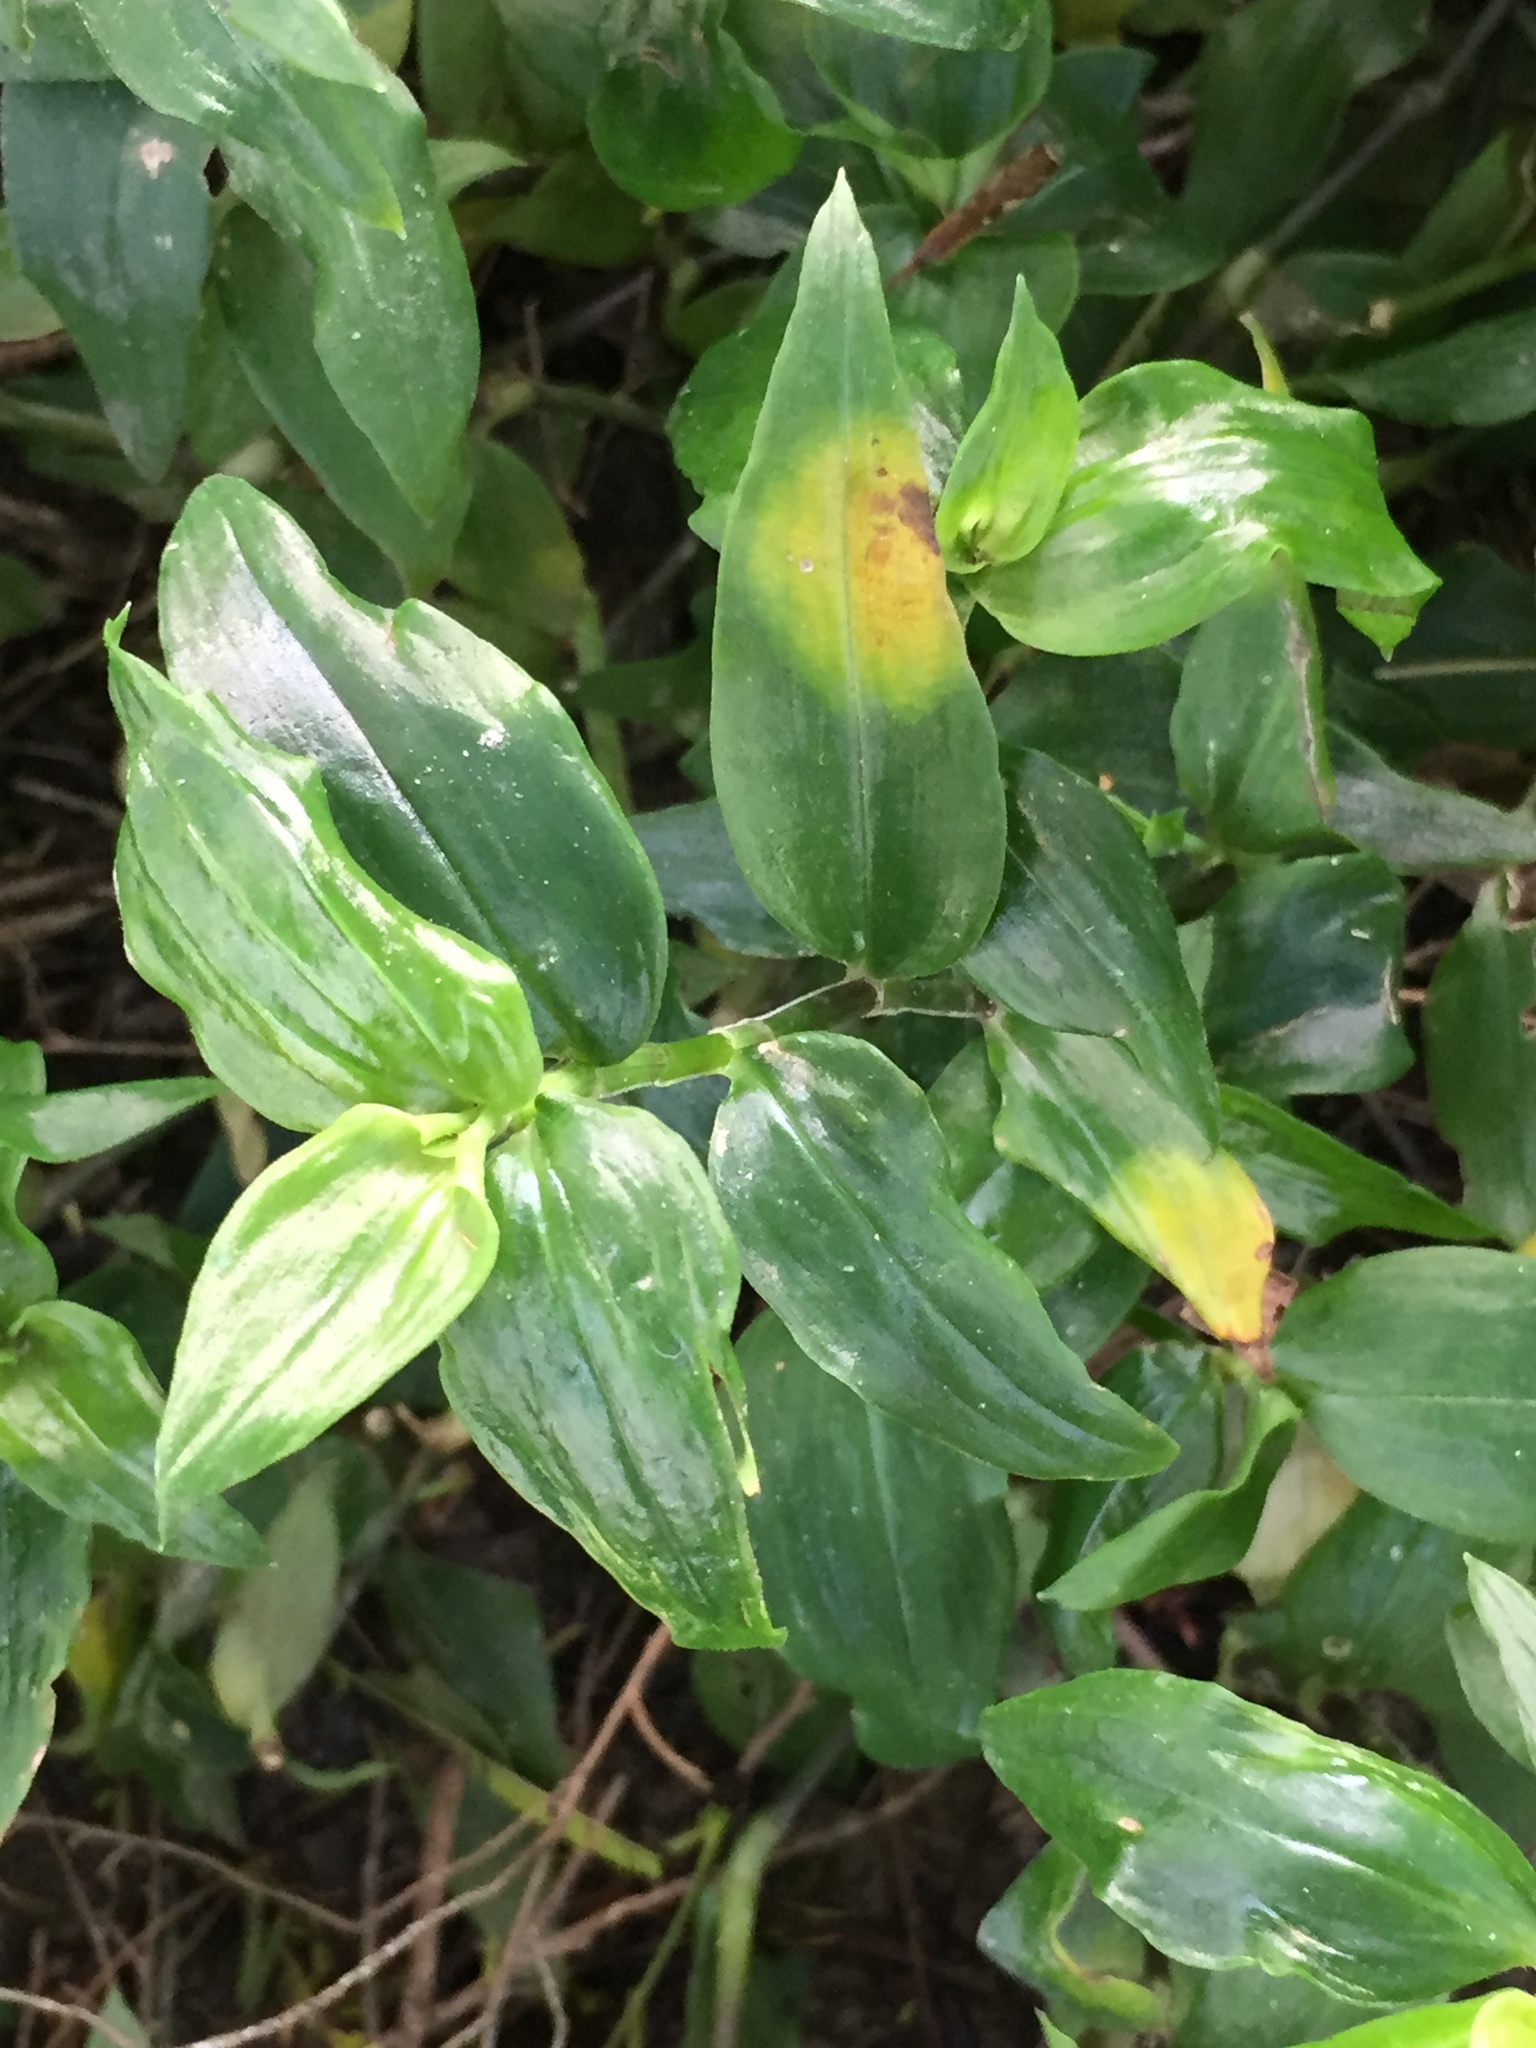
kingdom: Fungi
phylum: Basidiomycota
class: Exobasidiomycetes
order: Exobasidiales
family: Brachybasidiaceae
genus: Kordyana
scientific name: Kordyana brasiliensis
